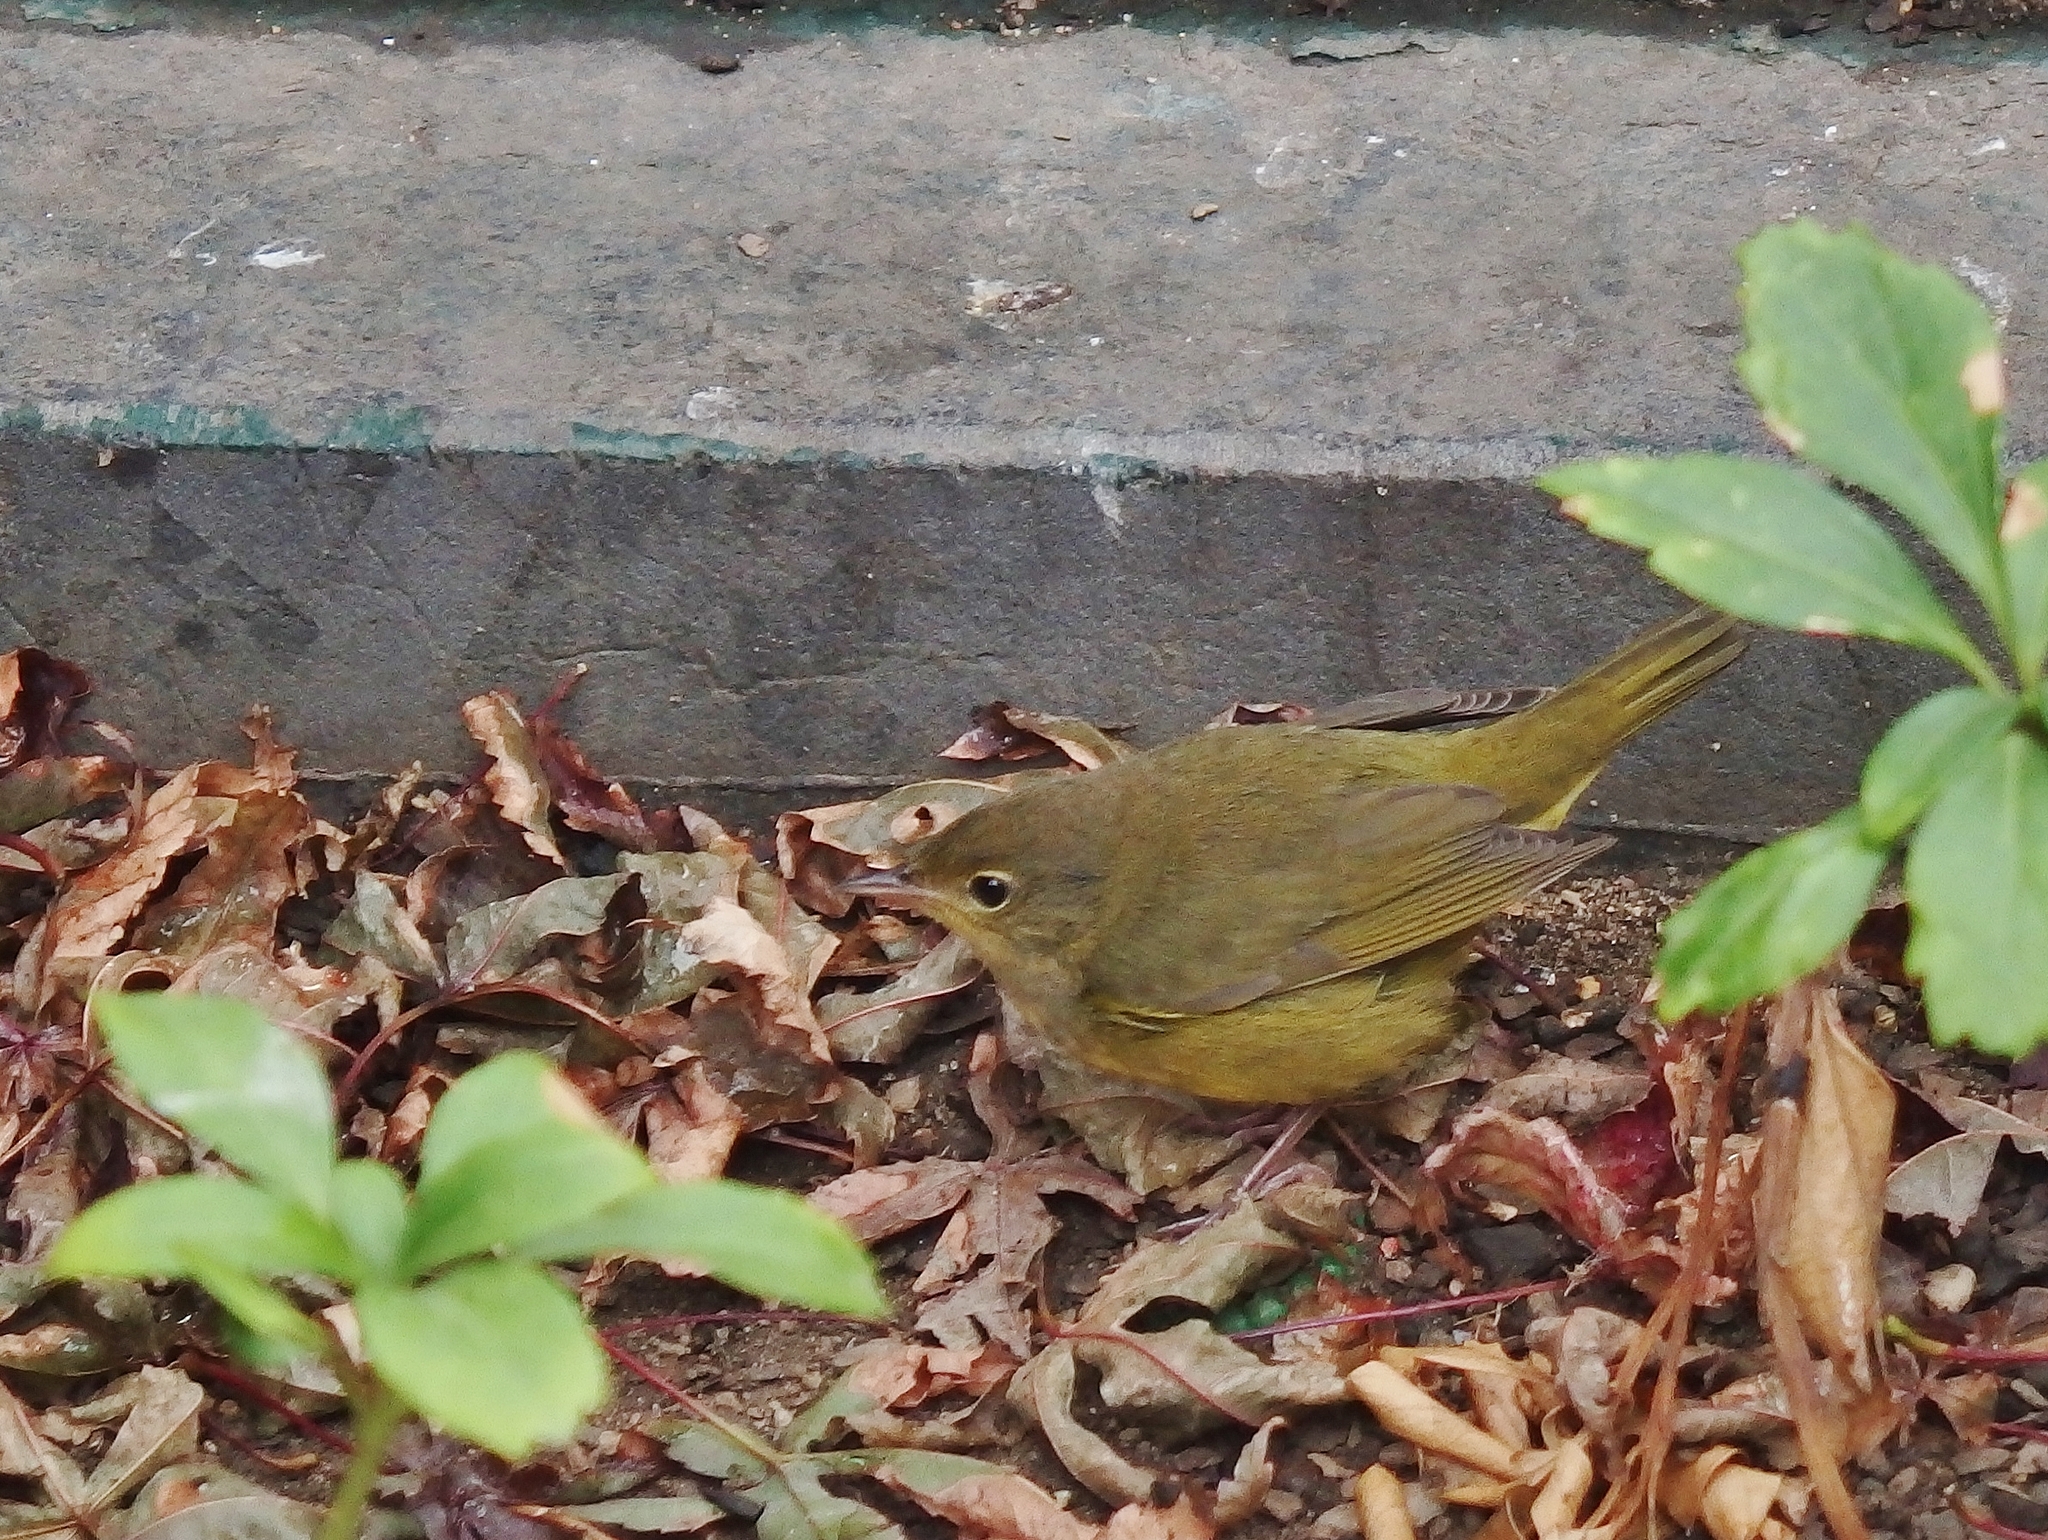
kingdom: Animalia
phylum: Chordata
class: Aves
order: Passeriformes
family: Parulidae
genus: Geothlypis
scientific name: Geothlypis philadelphia
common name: Mourning warbler
